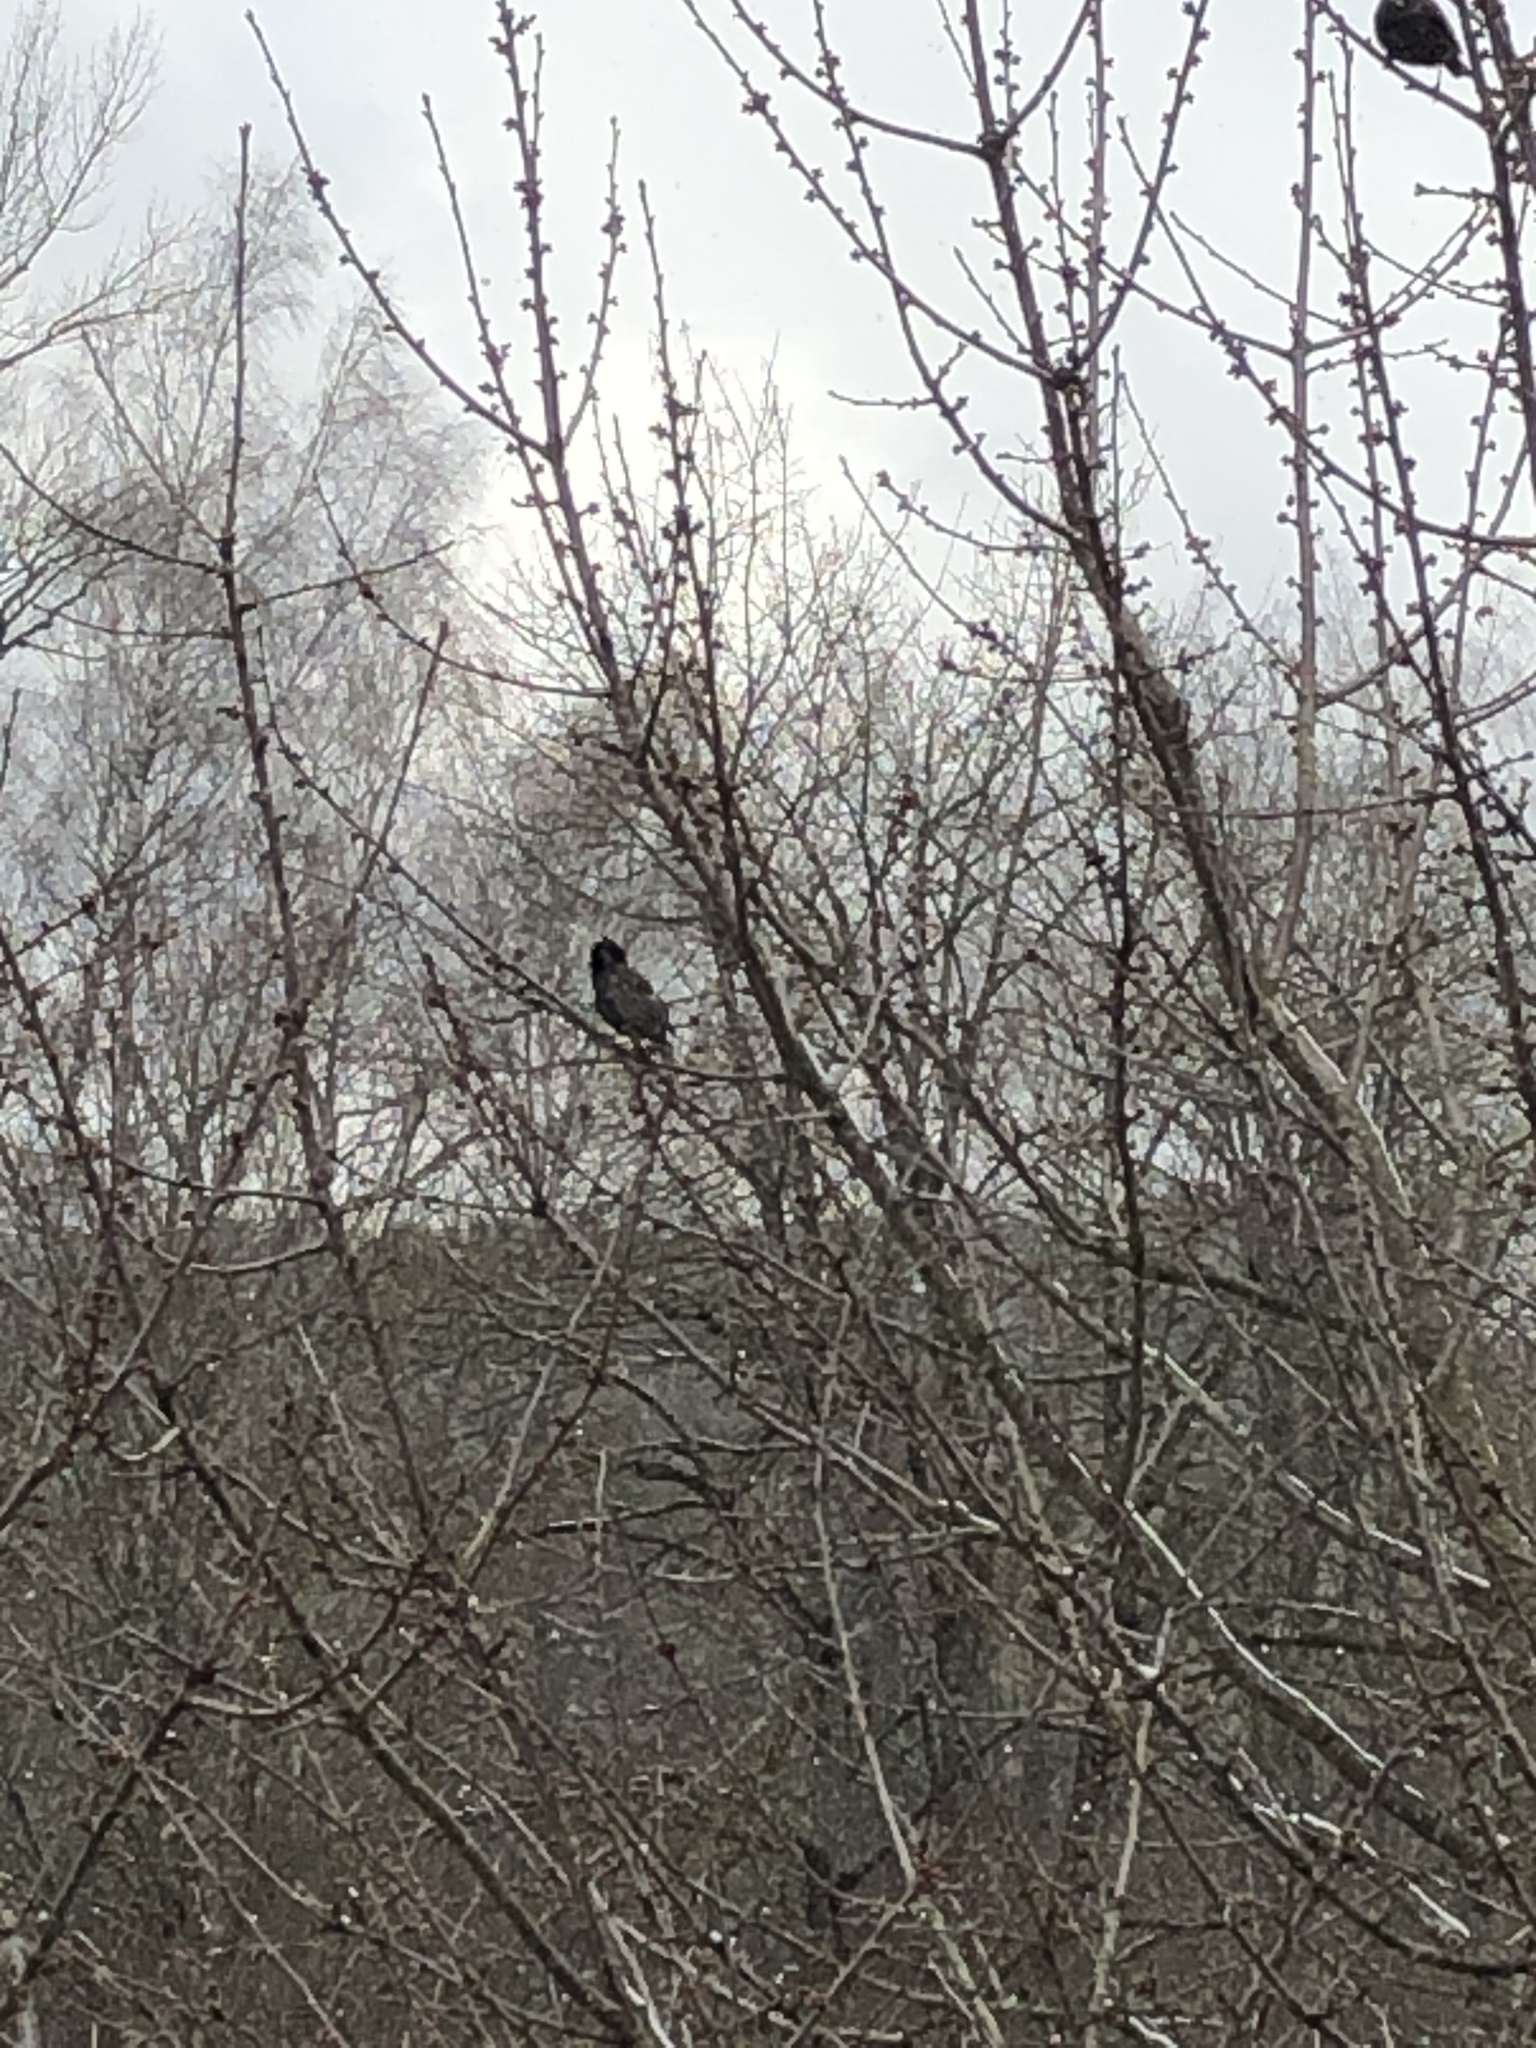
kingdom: Animalia
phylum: Chordata
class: Aves
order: Passeriformes
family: Sturnidae
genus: Sturnus
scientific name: Sturnus vulgaris
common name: Common starling
